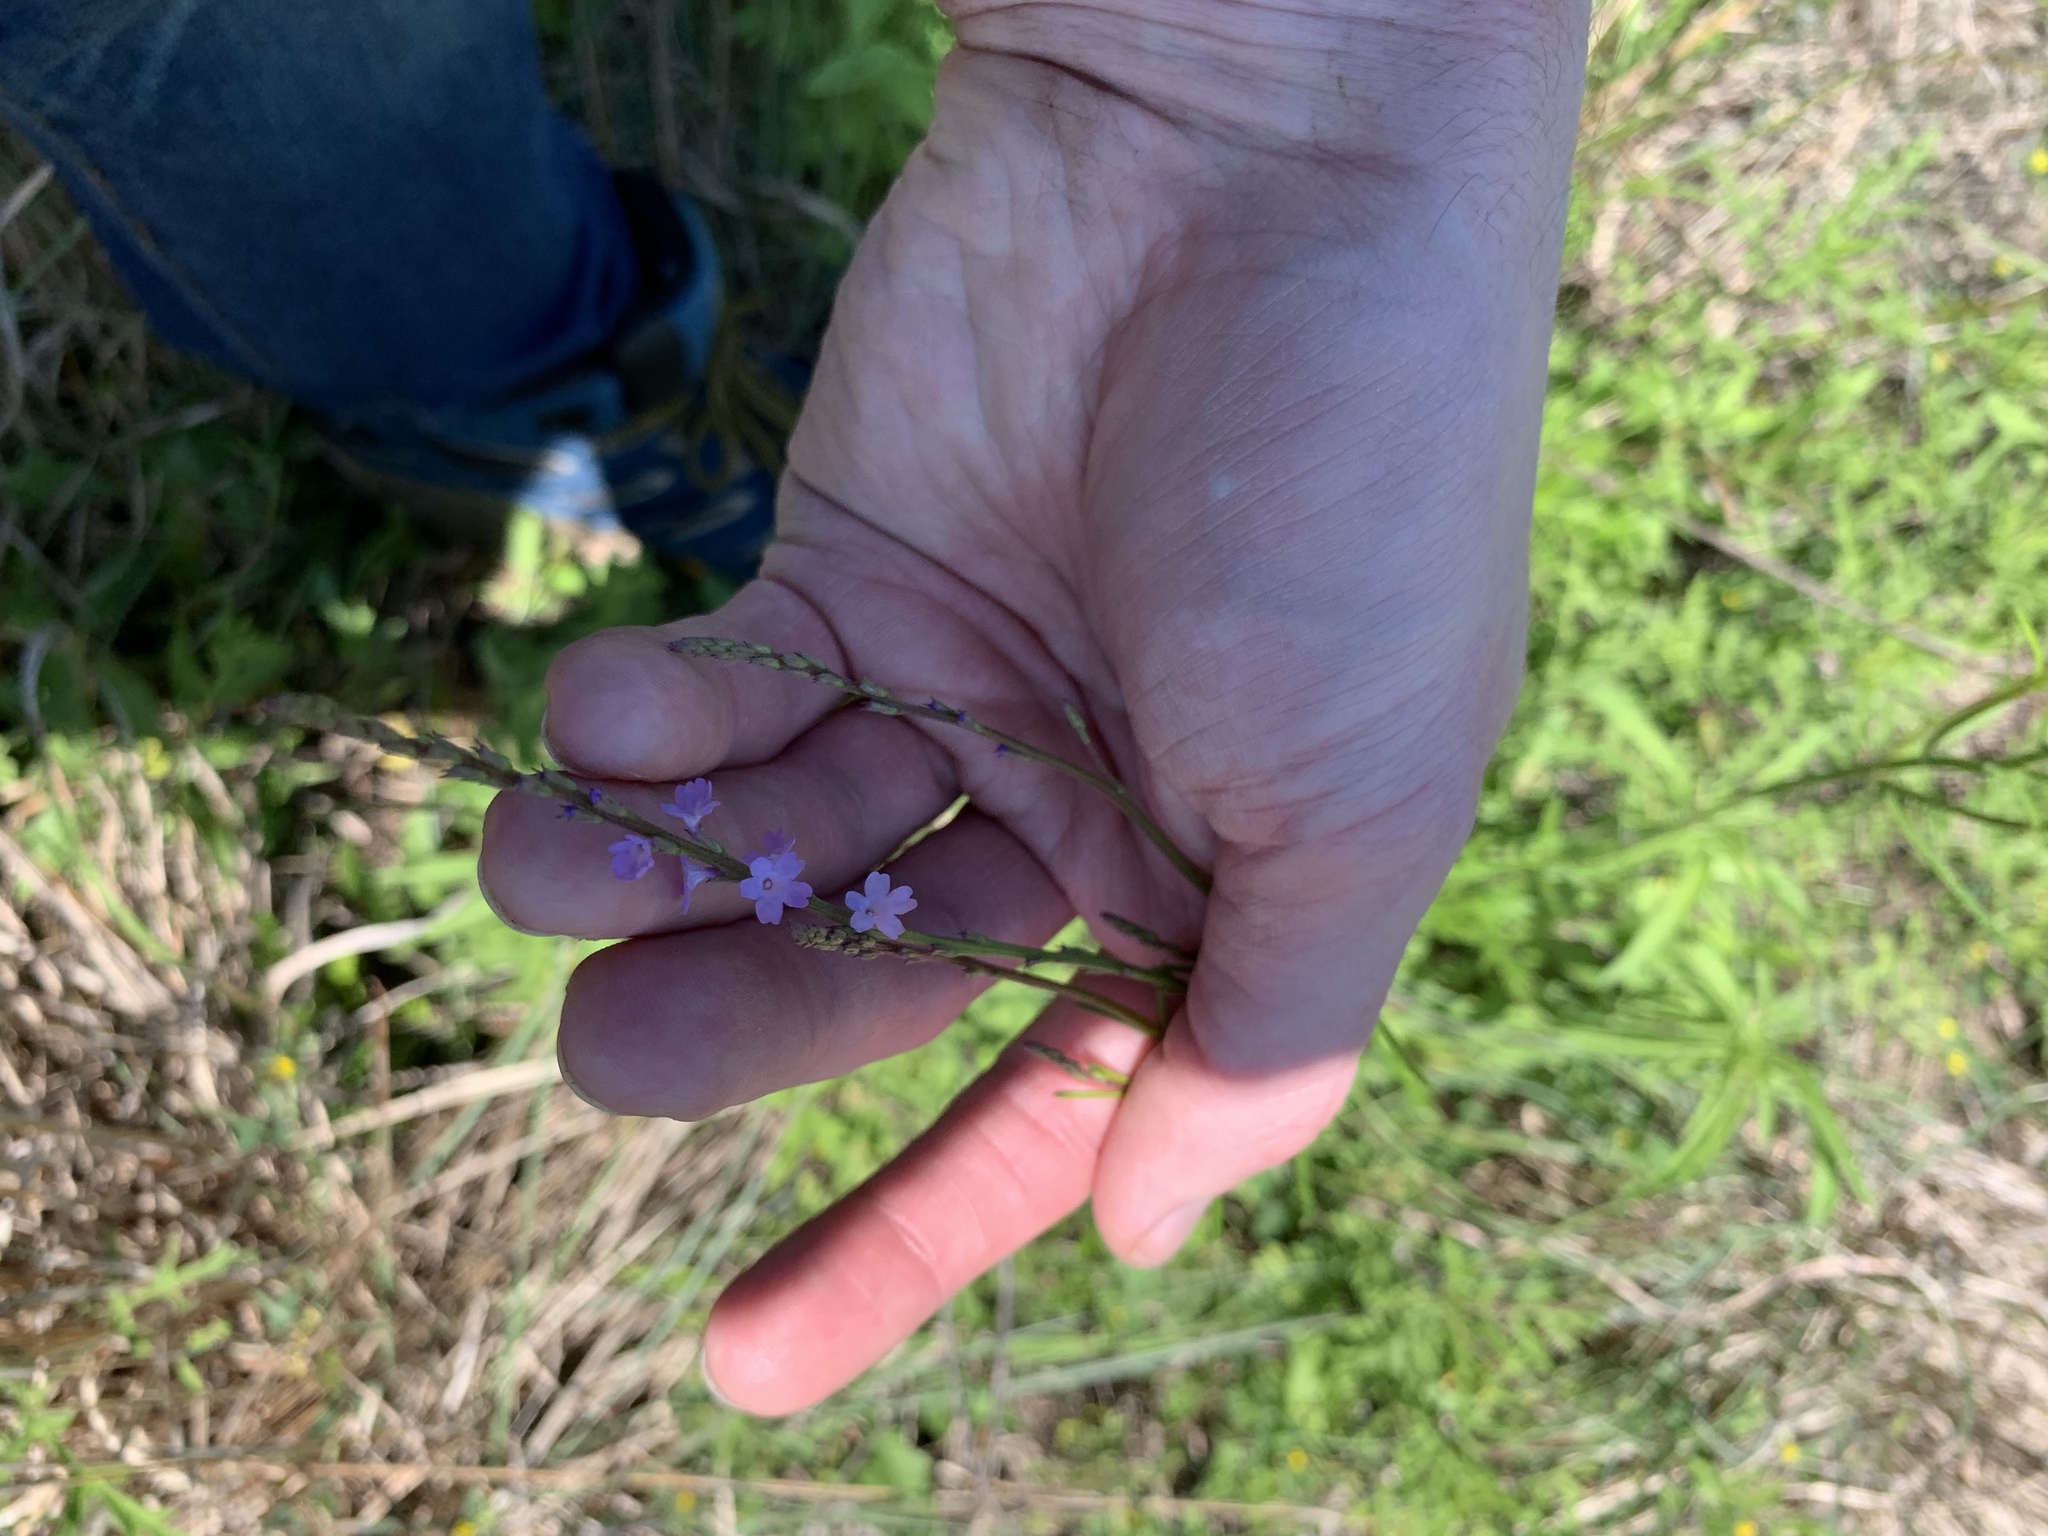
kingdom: Plantae
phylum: Tracheophyta
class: Magnoliopsida
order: Lamiales
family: Verbenaceae
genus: Verbena
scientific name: Verbena halei
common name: Texas vervain
